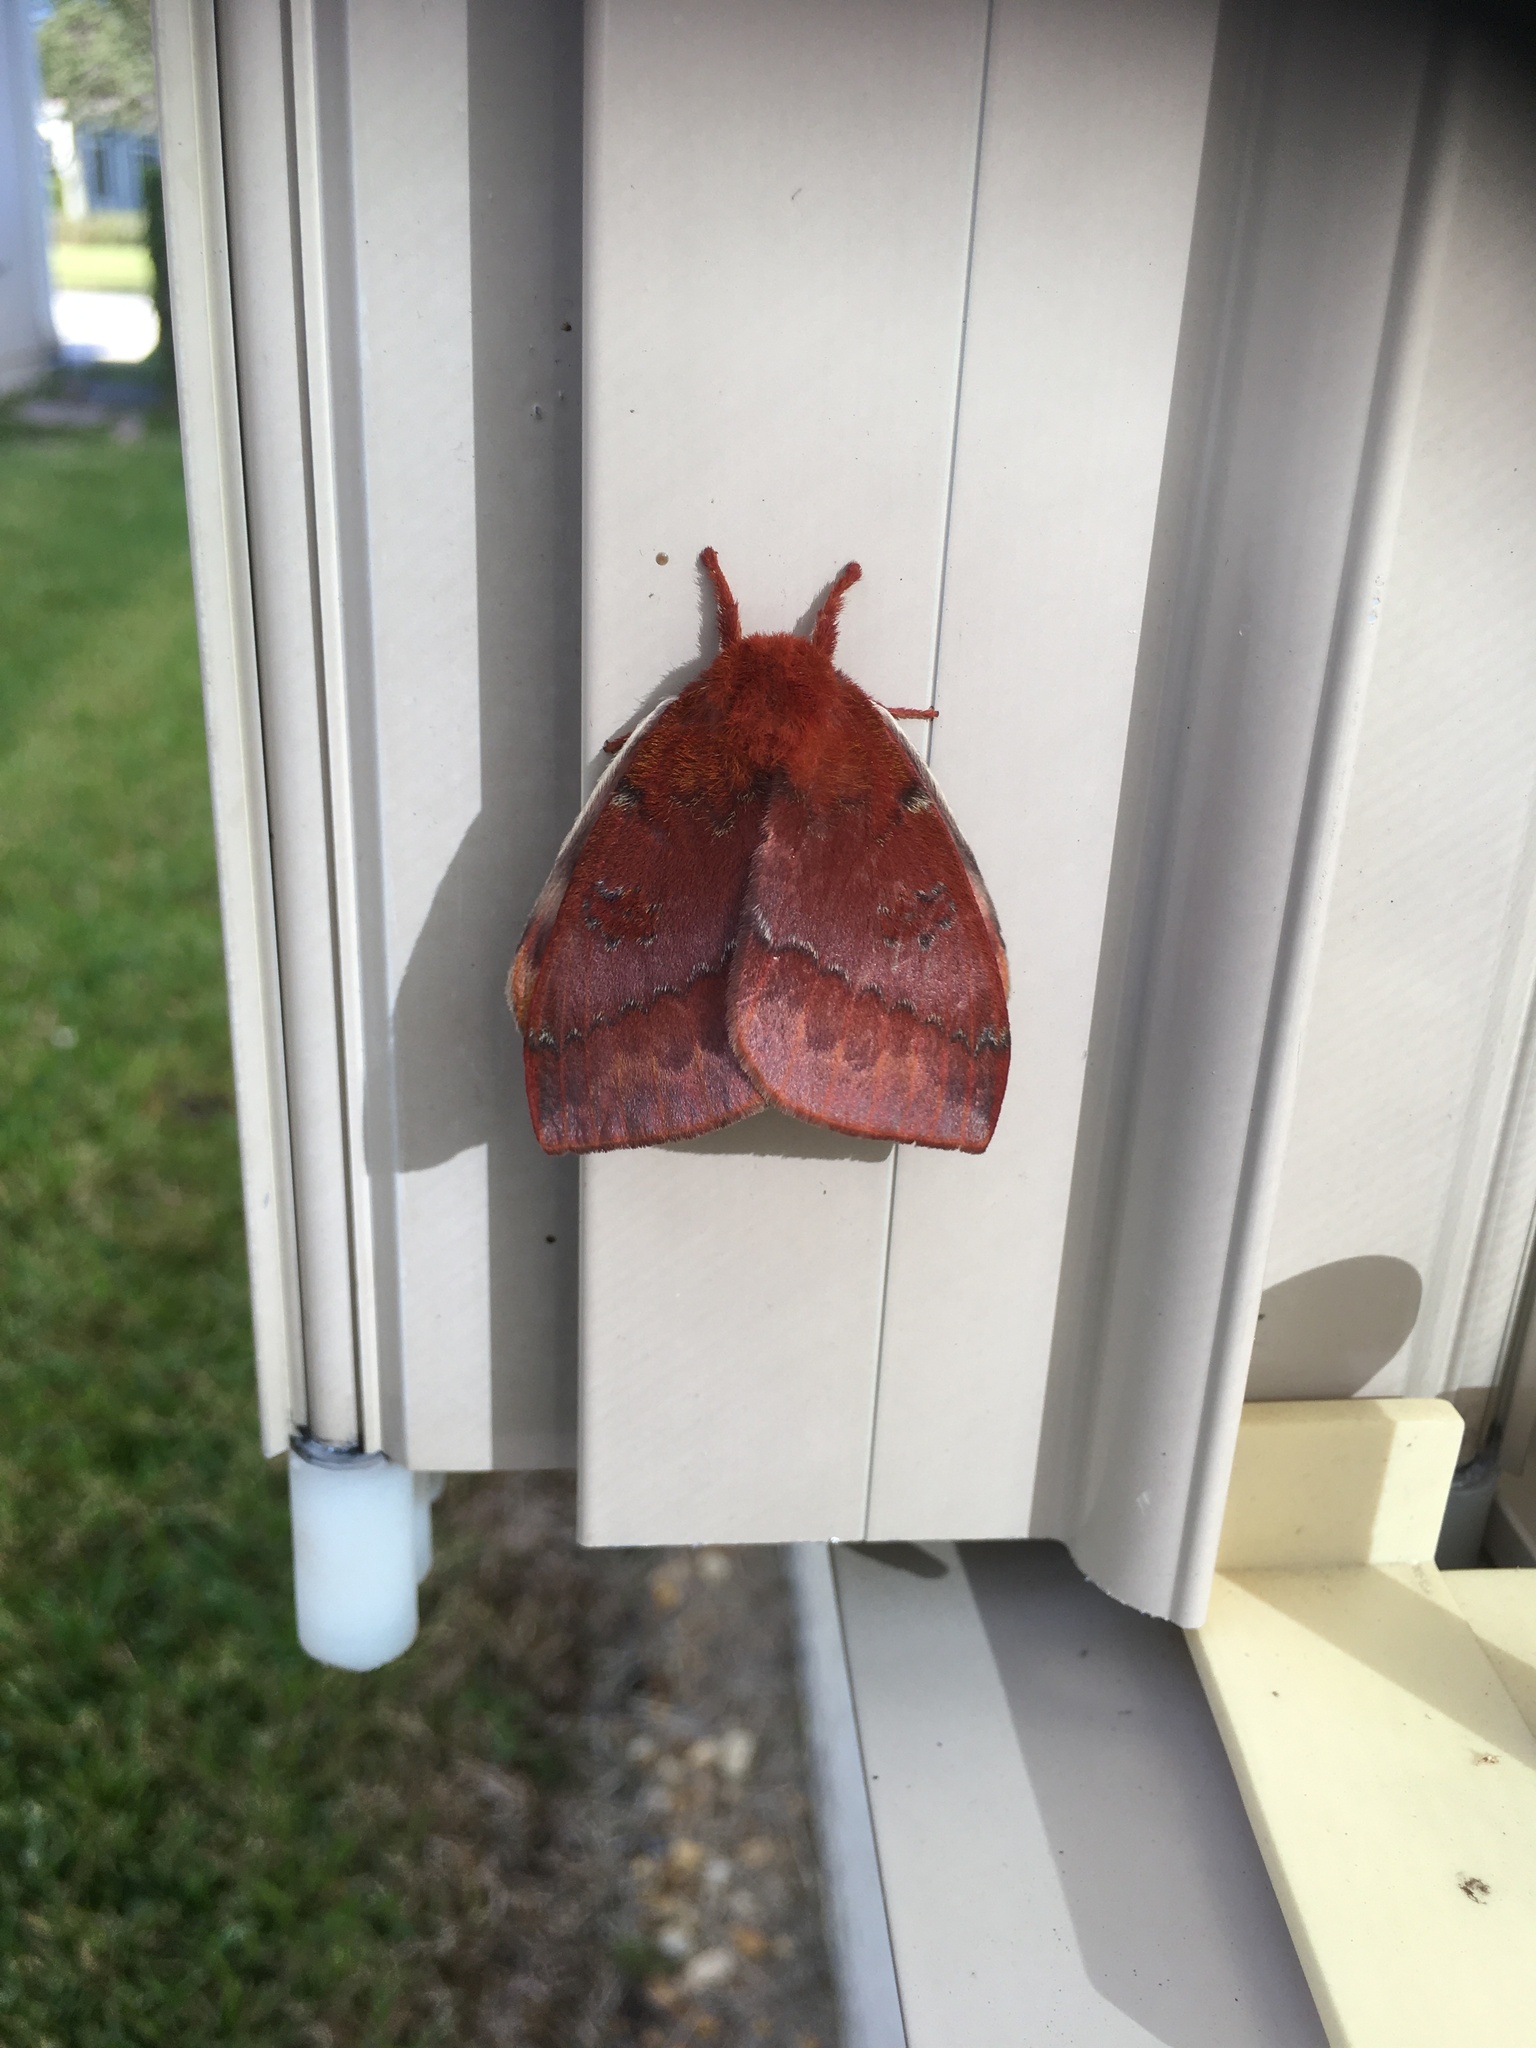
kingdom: Animalia
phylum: Arthropoda
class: Insecta
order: Lepidoptera
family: Saturniidae
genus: Automeris
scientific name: Automeris io
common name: Io moth
